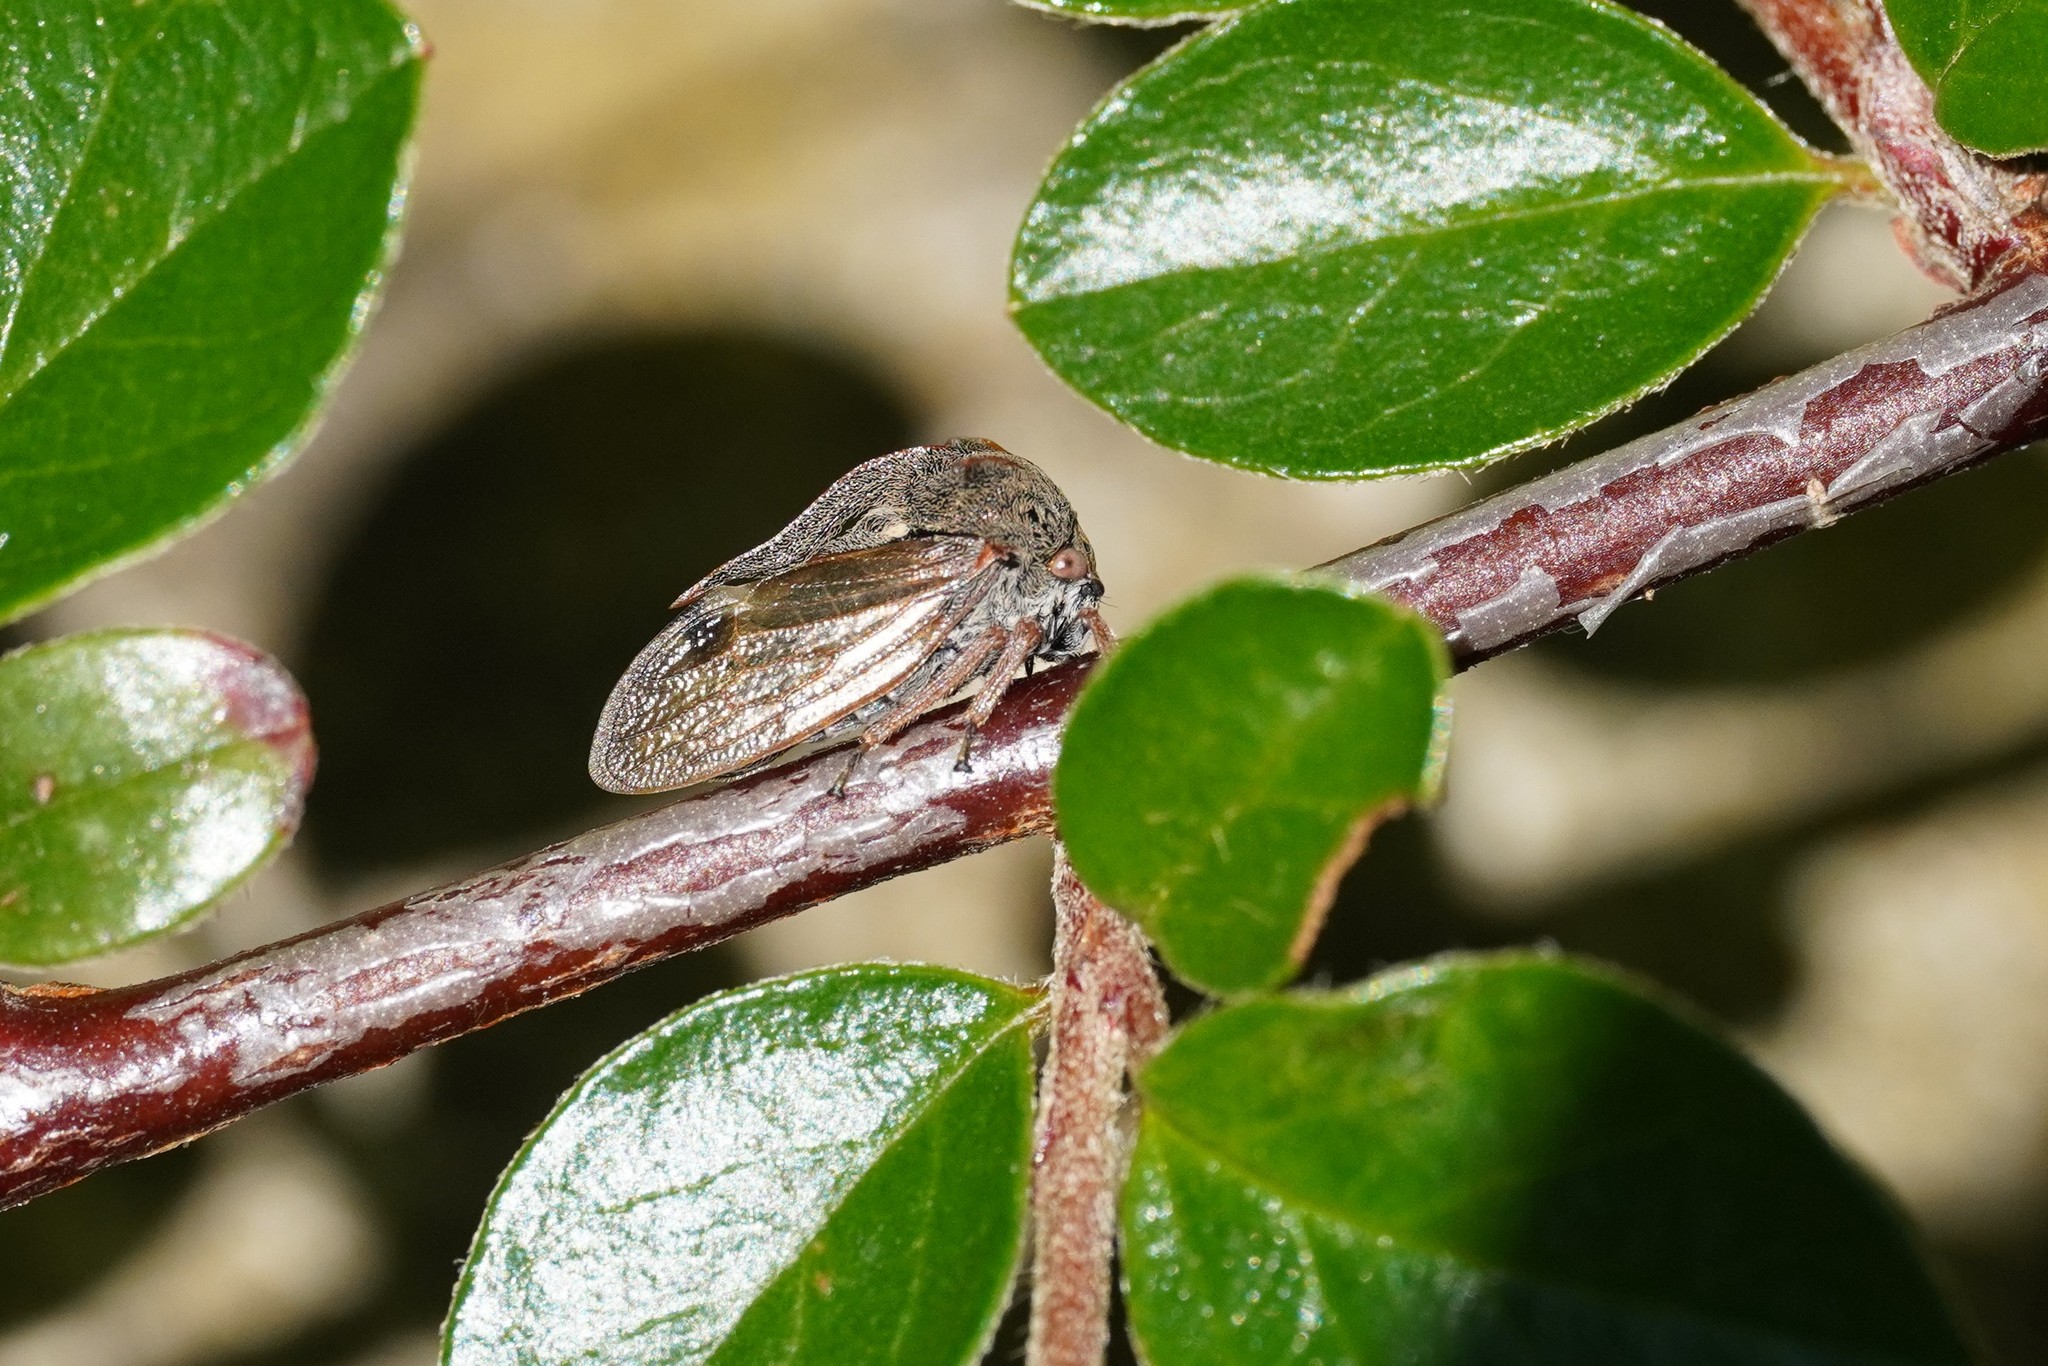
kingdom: Animalia
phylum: Arthropoda
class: Insecta
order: Hemiptera
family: Membracidae
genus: Centrotus
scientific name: Centrotus cornuta
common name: Treehopper
